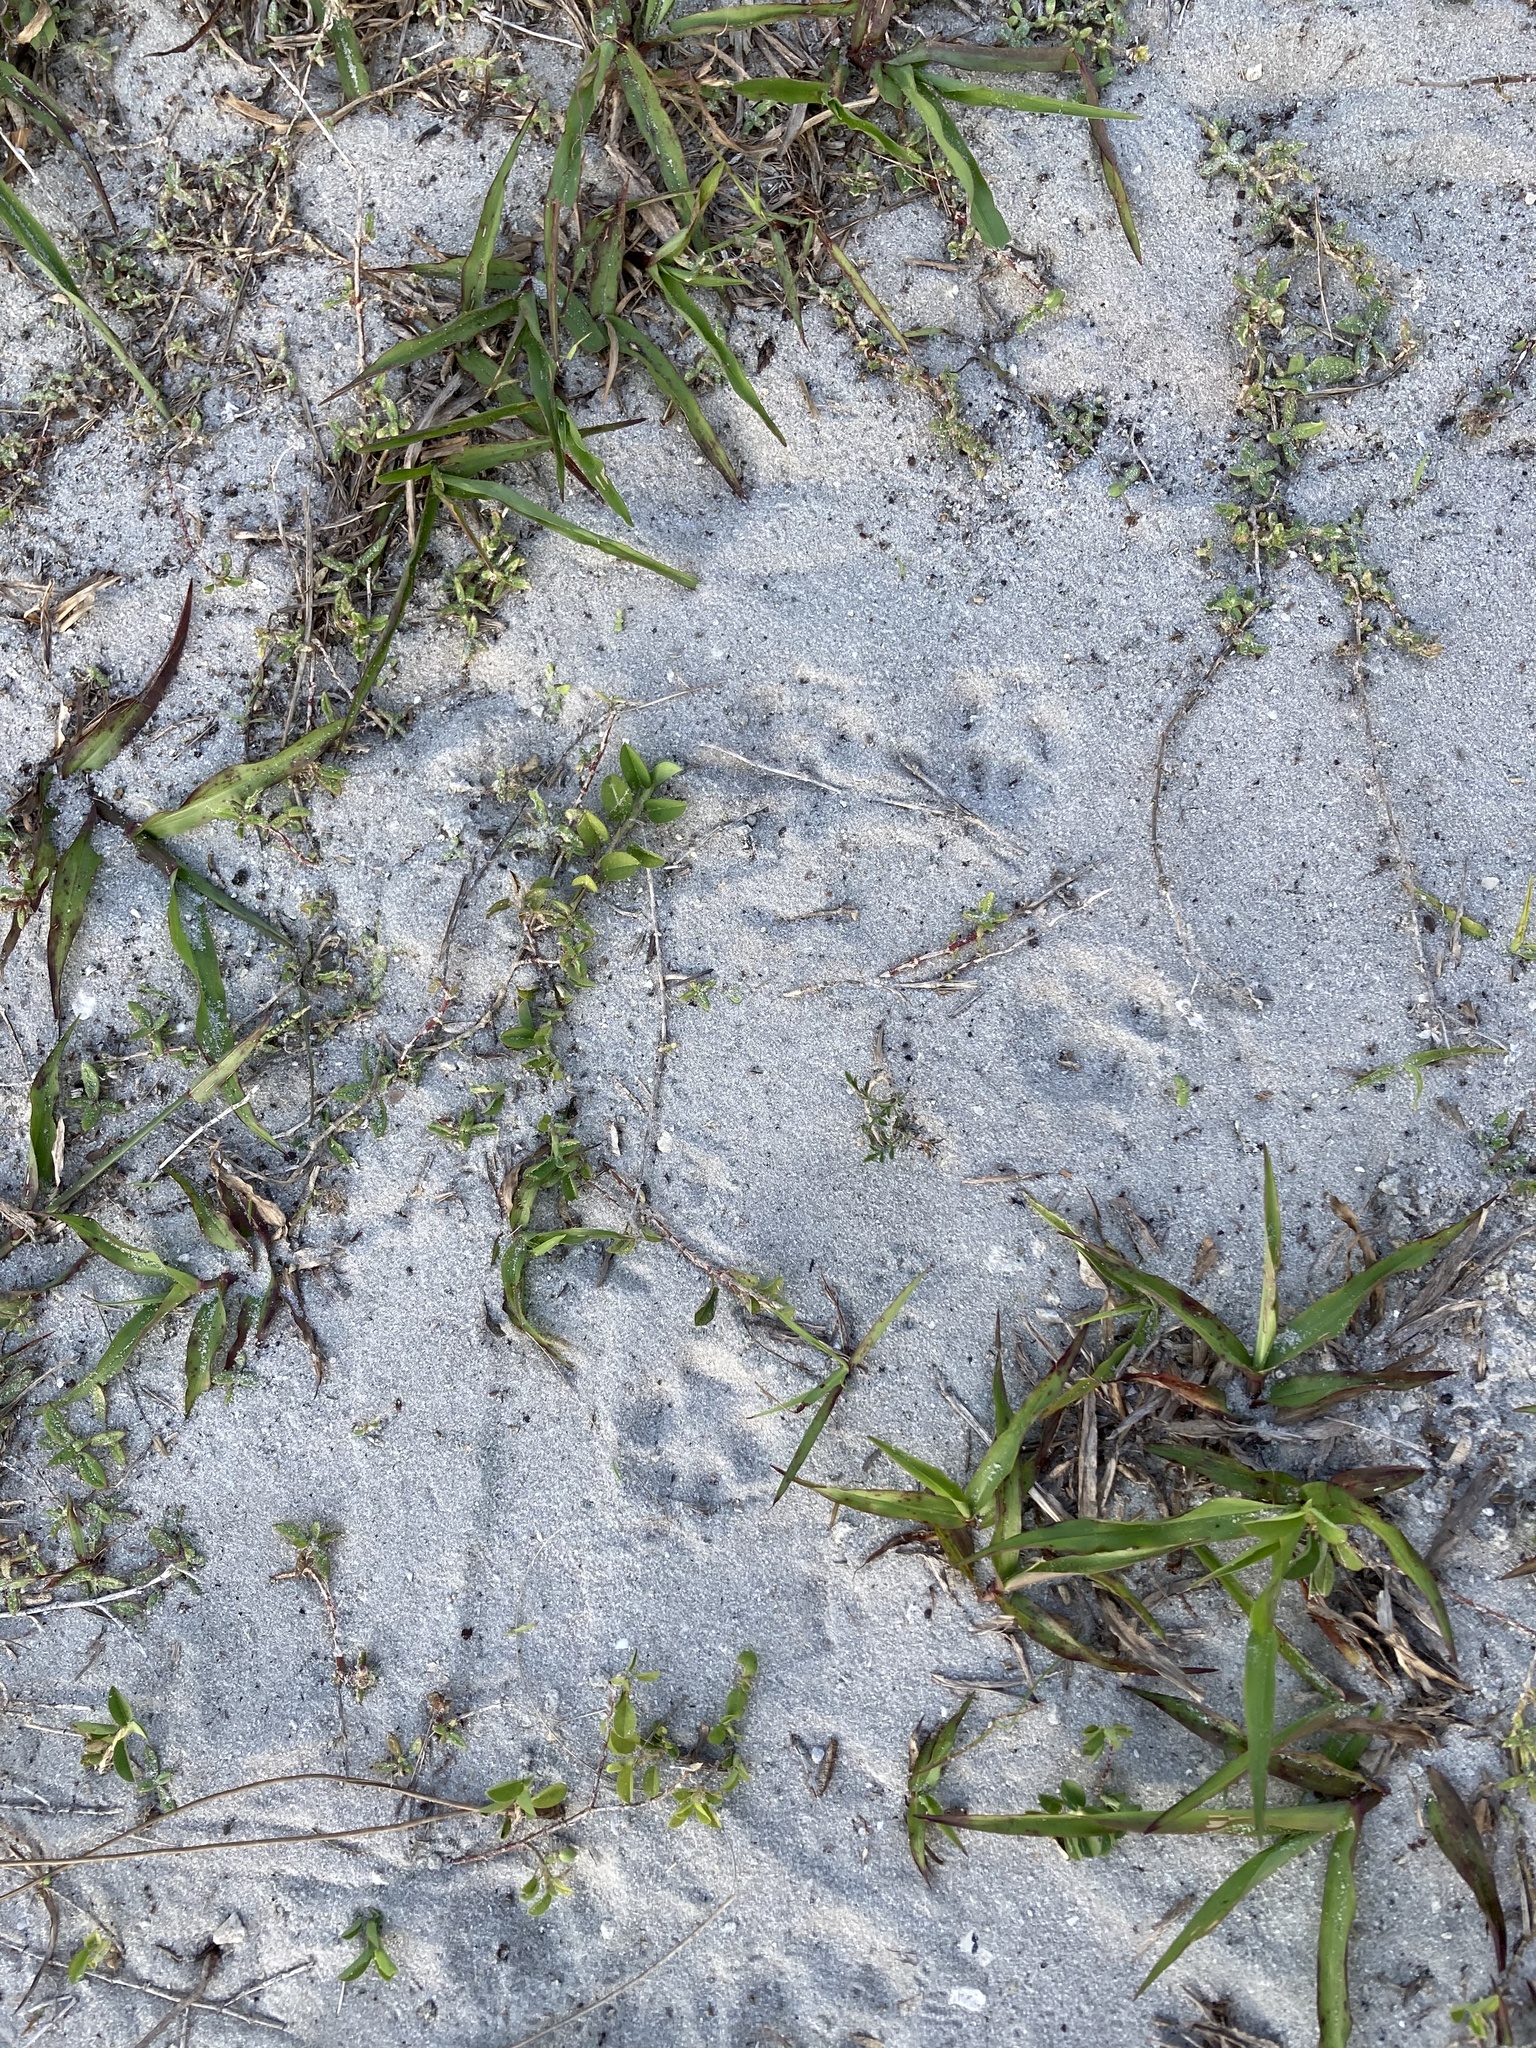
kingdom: Animalia
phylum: Chordata
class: Mammalia
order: Carnivora
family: Canidae
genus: Urocyon
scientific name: Urocyon cinereoargenteus
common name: Gray fox
